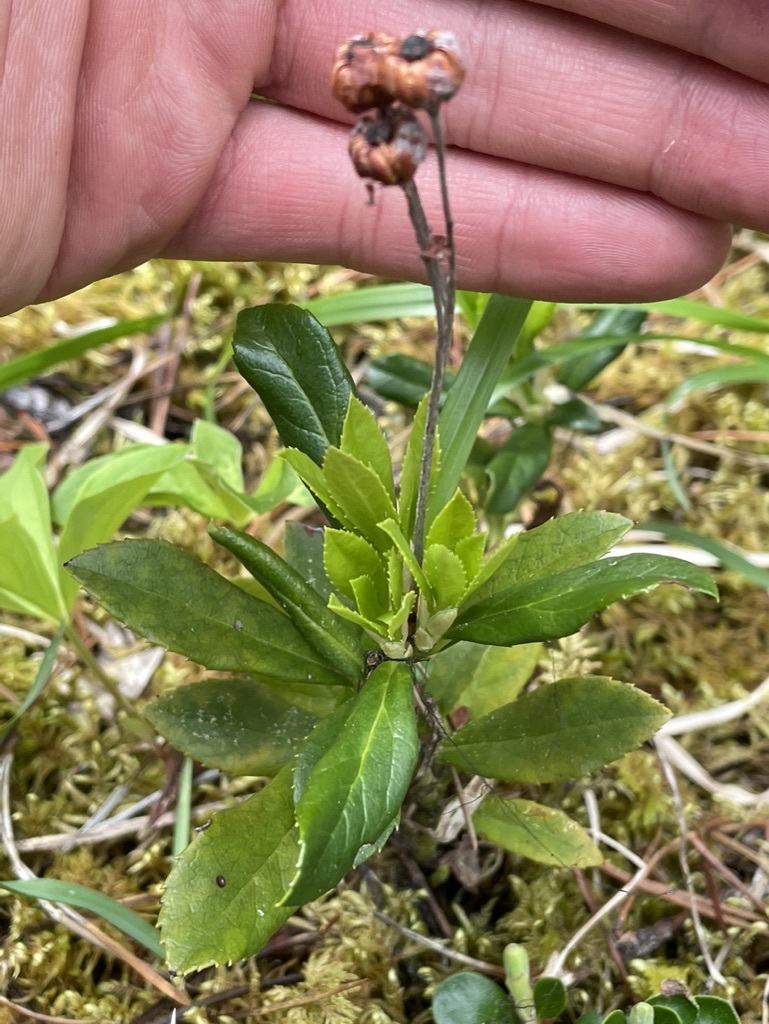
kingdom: Plantae
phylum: Tracheophyta
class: Magnoliopsida
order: Ericales
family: Ericaceae
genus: Chimaphila
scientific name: Chimaphila umbellata
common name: Pipsissewa
